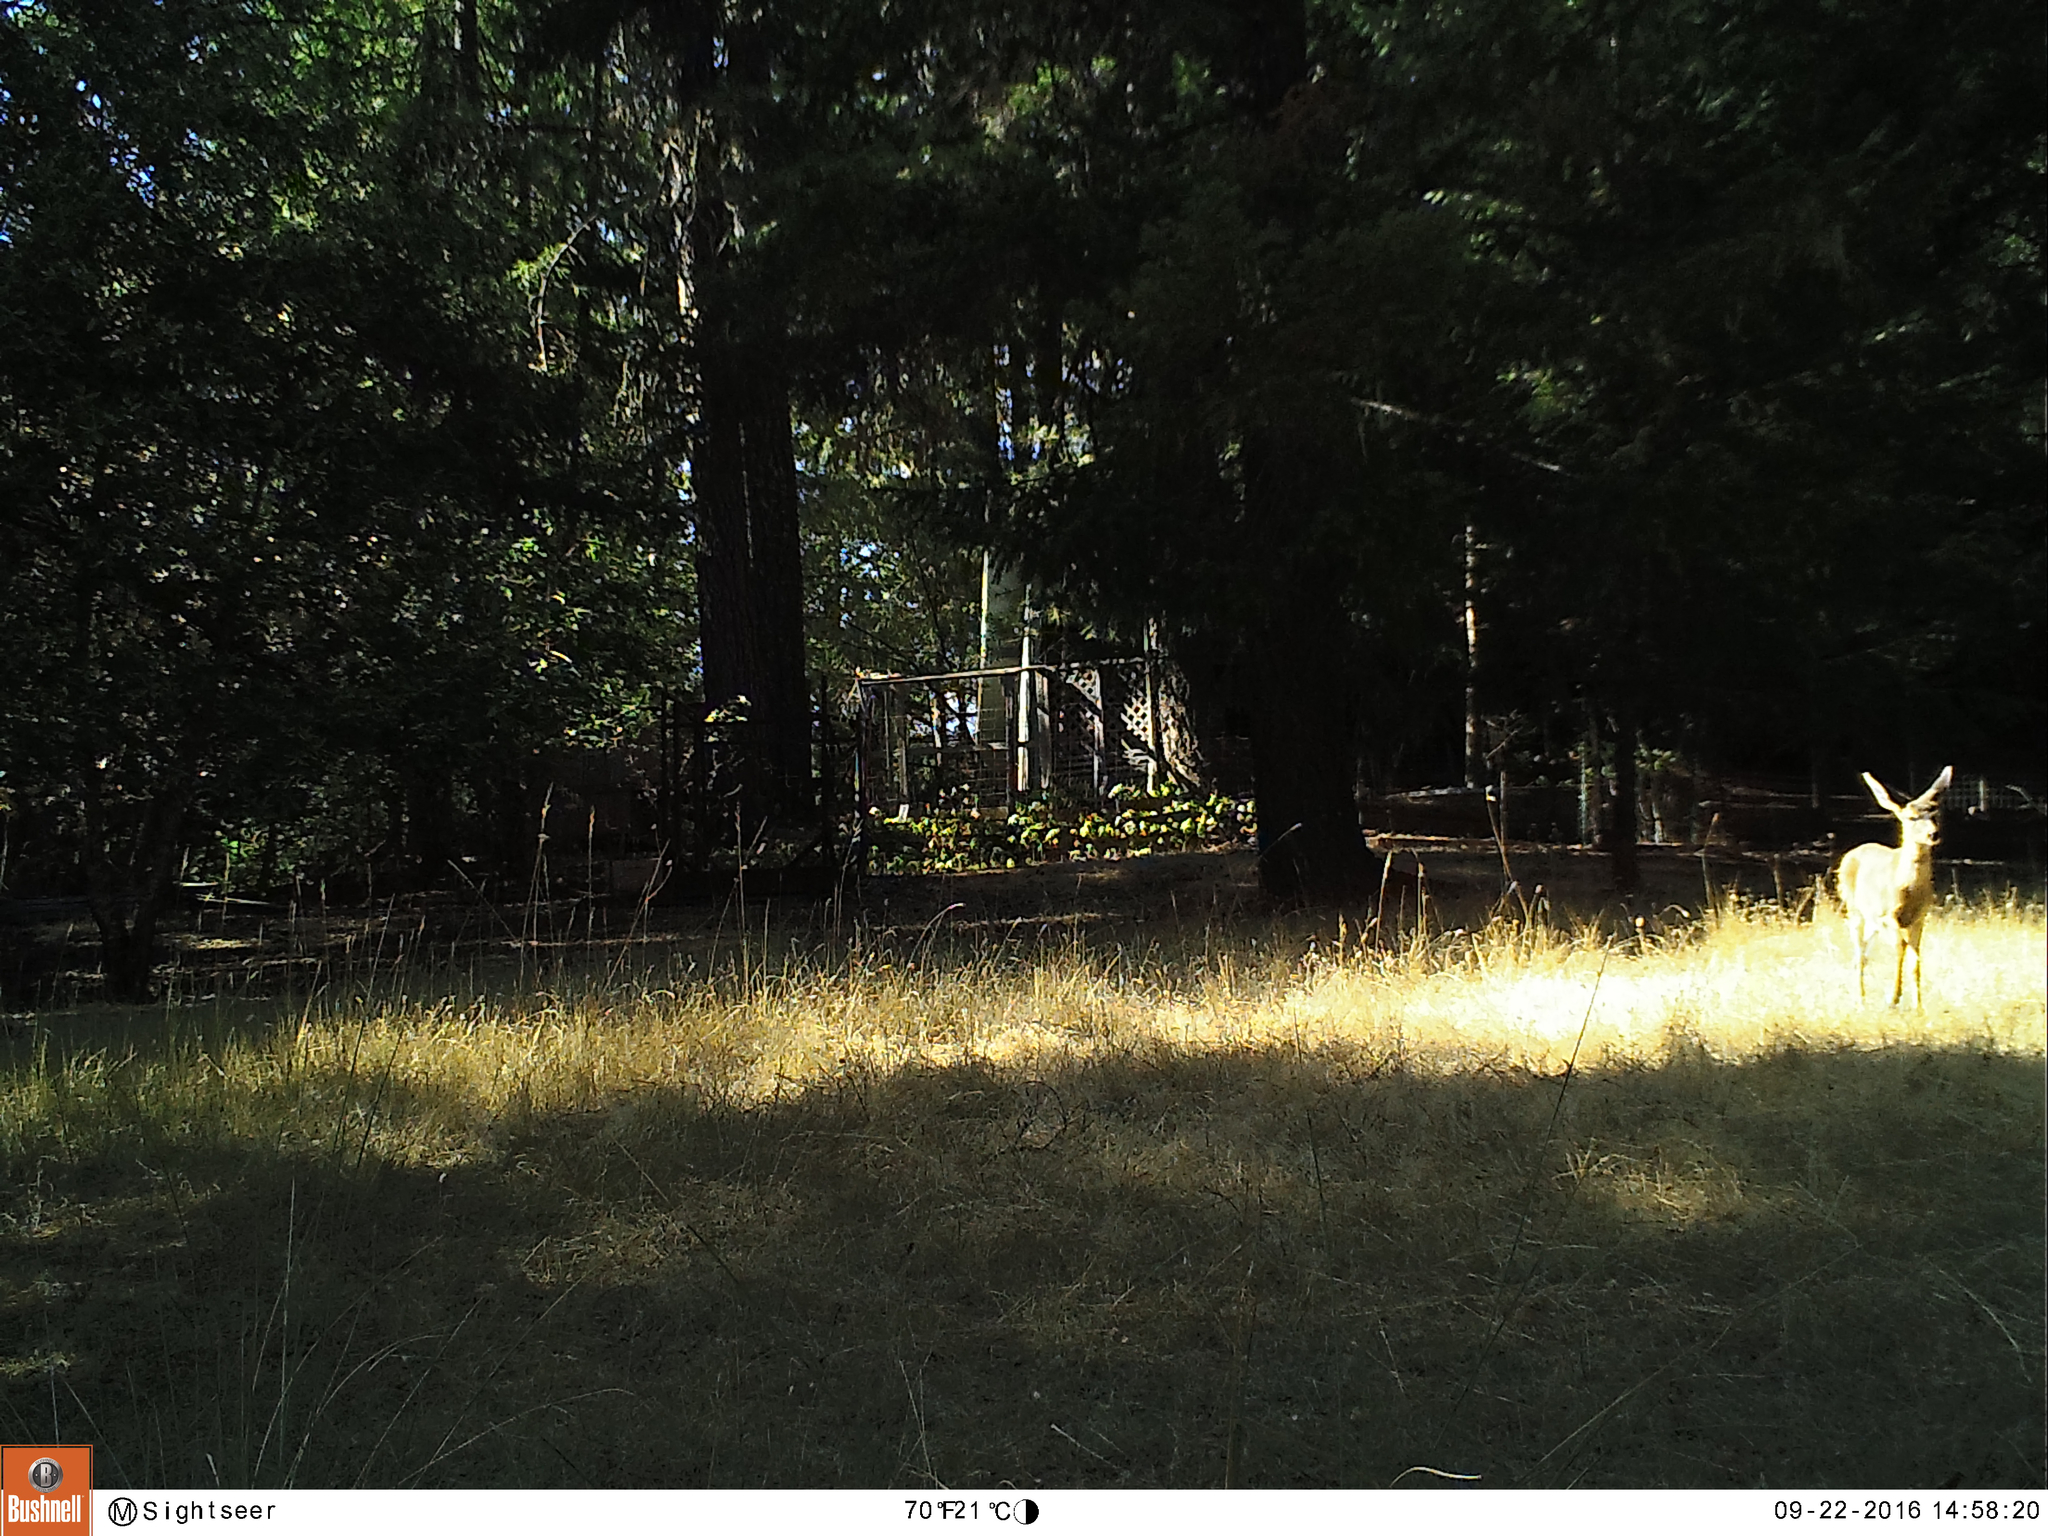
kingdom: Animalia
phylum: Chordata
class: Mammalia
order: Artiodactyla
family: Cervidae
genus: Odocoileus
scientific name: Odocoileus hemionus
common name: Mule deer
